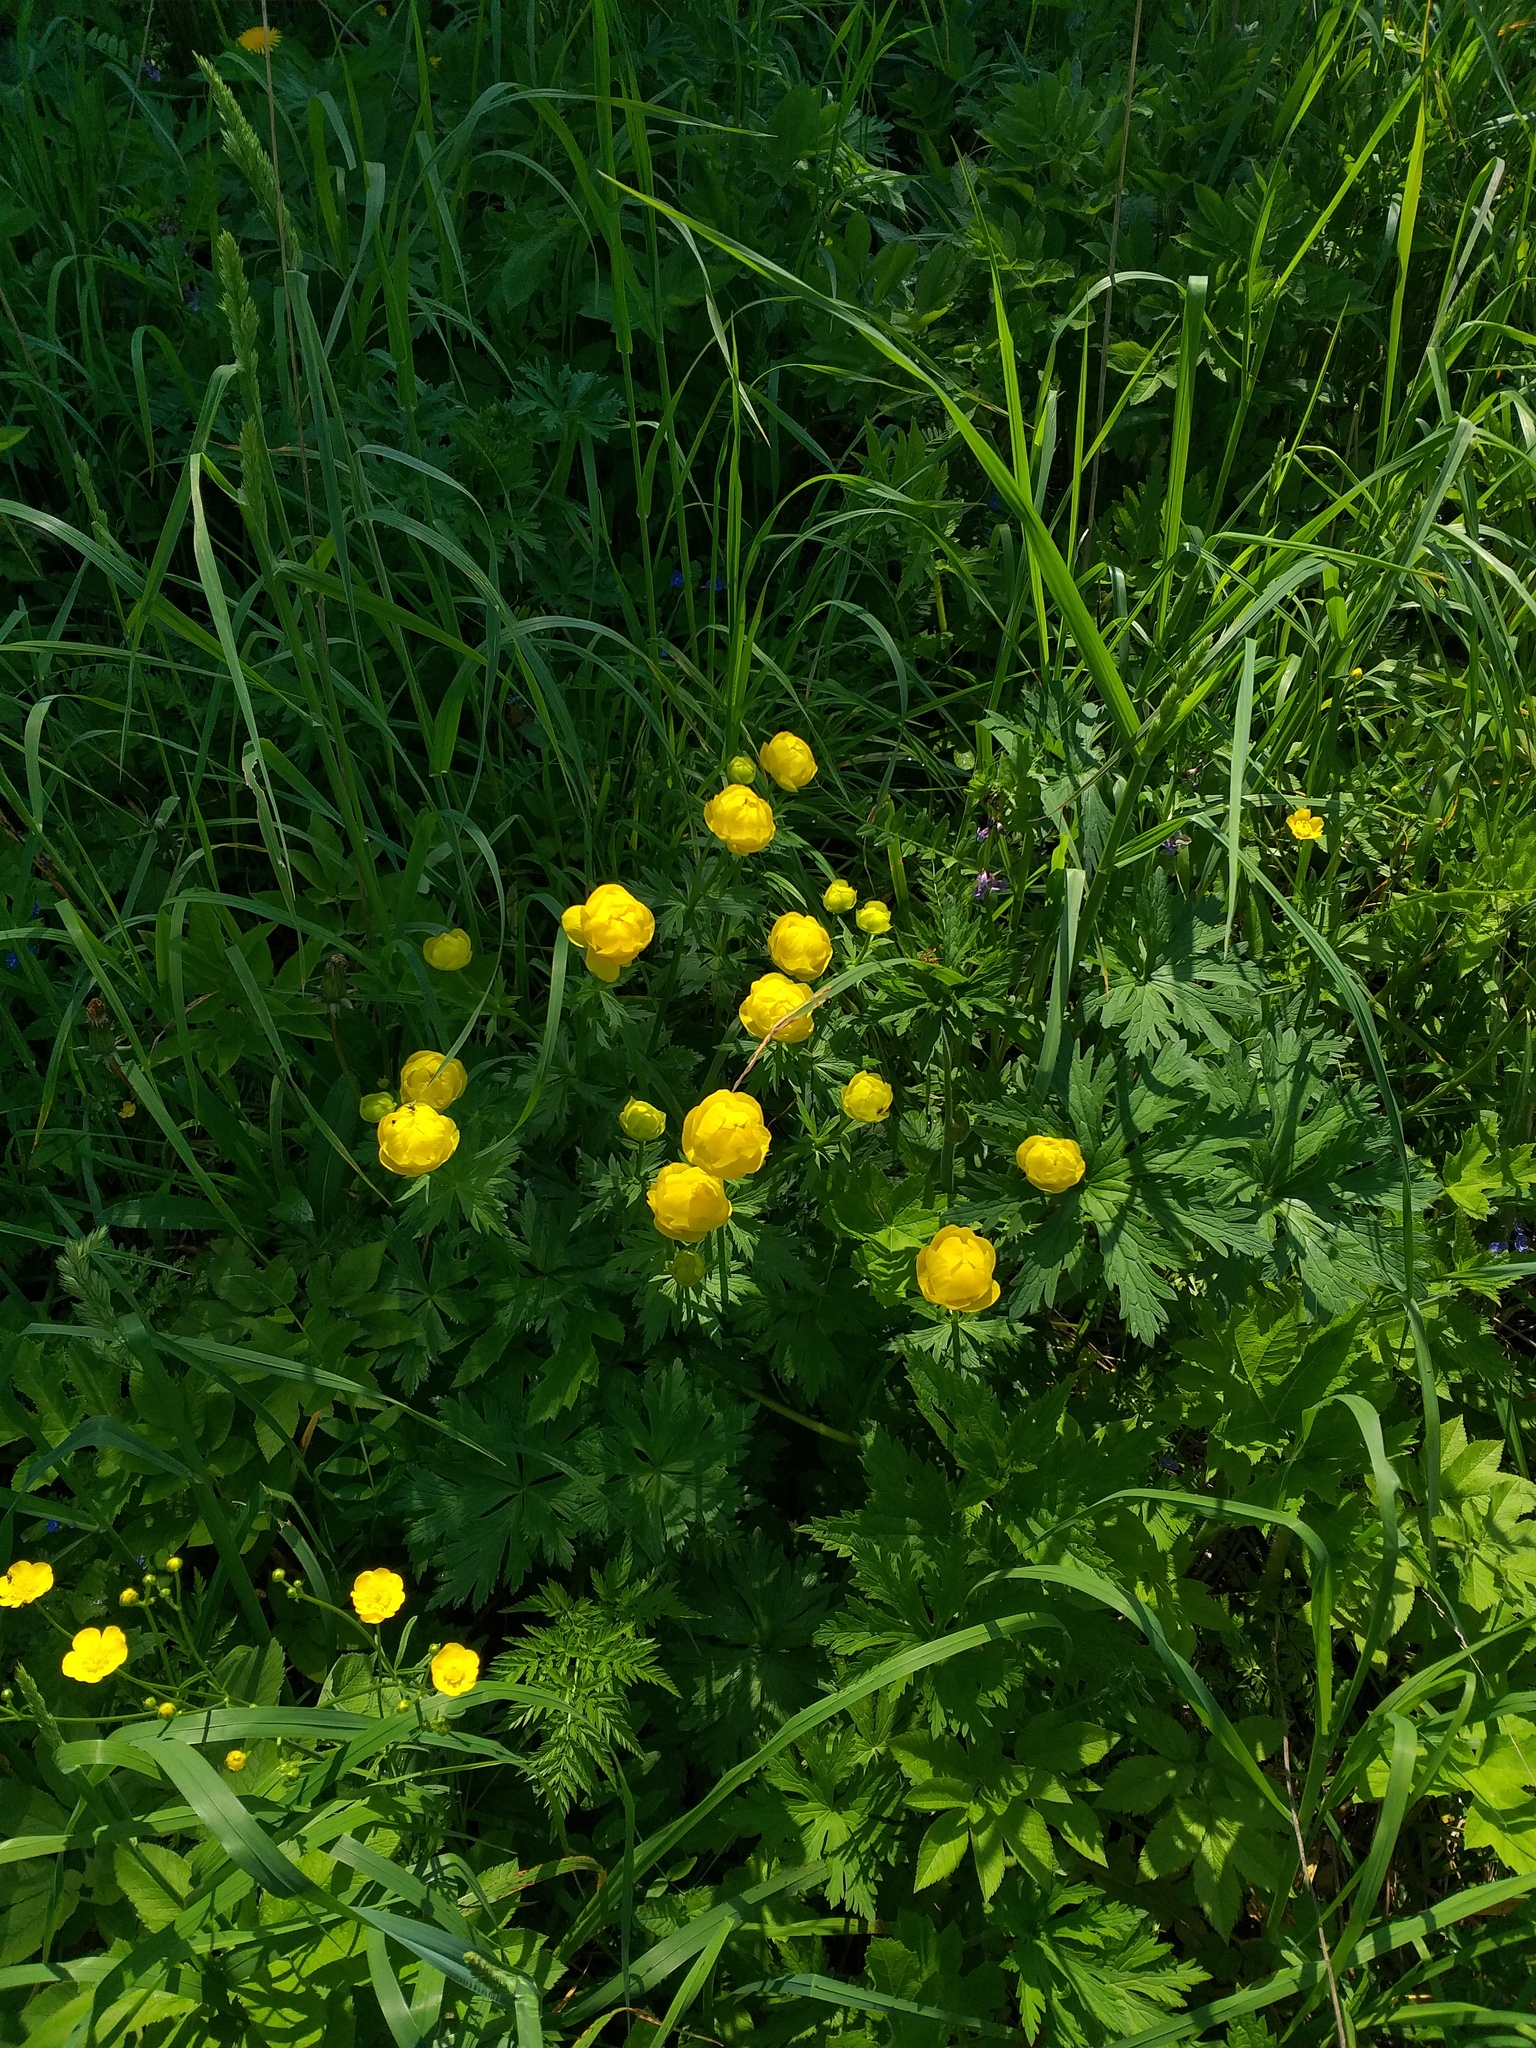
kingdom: Plantae
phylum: Tracheophyta
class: Magnoliopsida
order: Ranunculales
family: Ranunculaceae
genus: Trollius
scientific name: Trollius europaeus
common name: European globeflower
